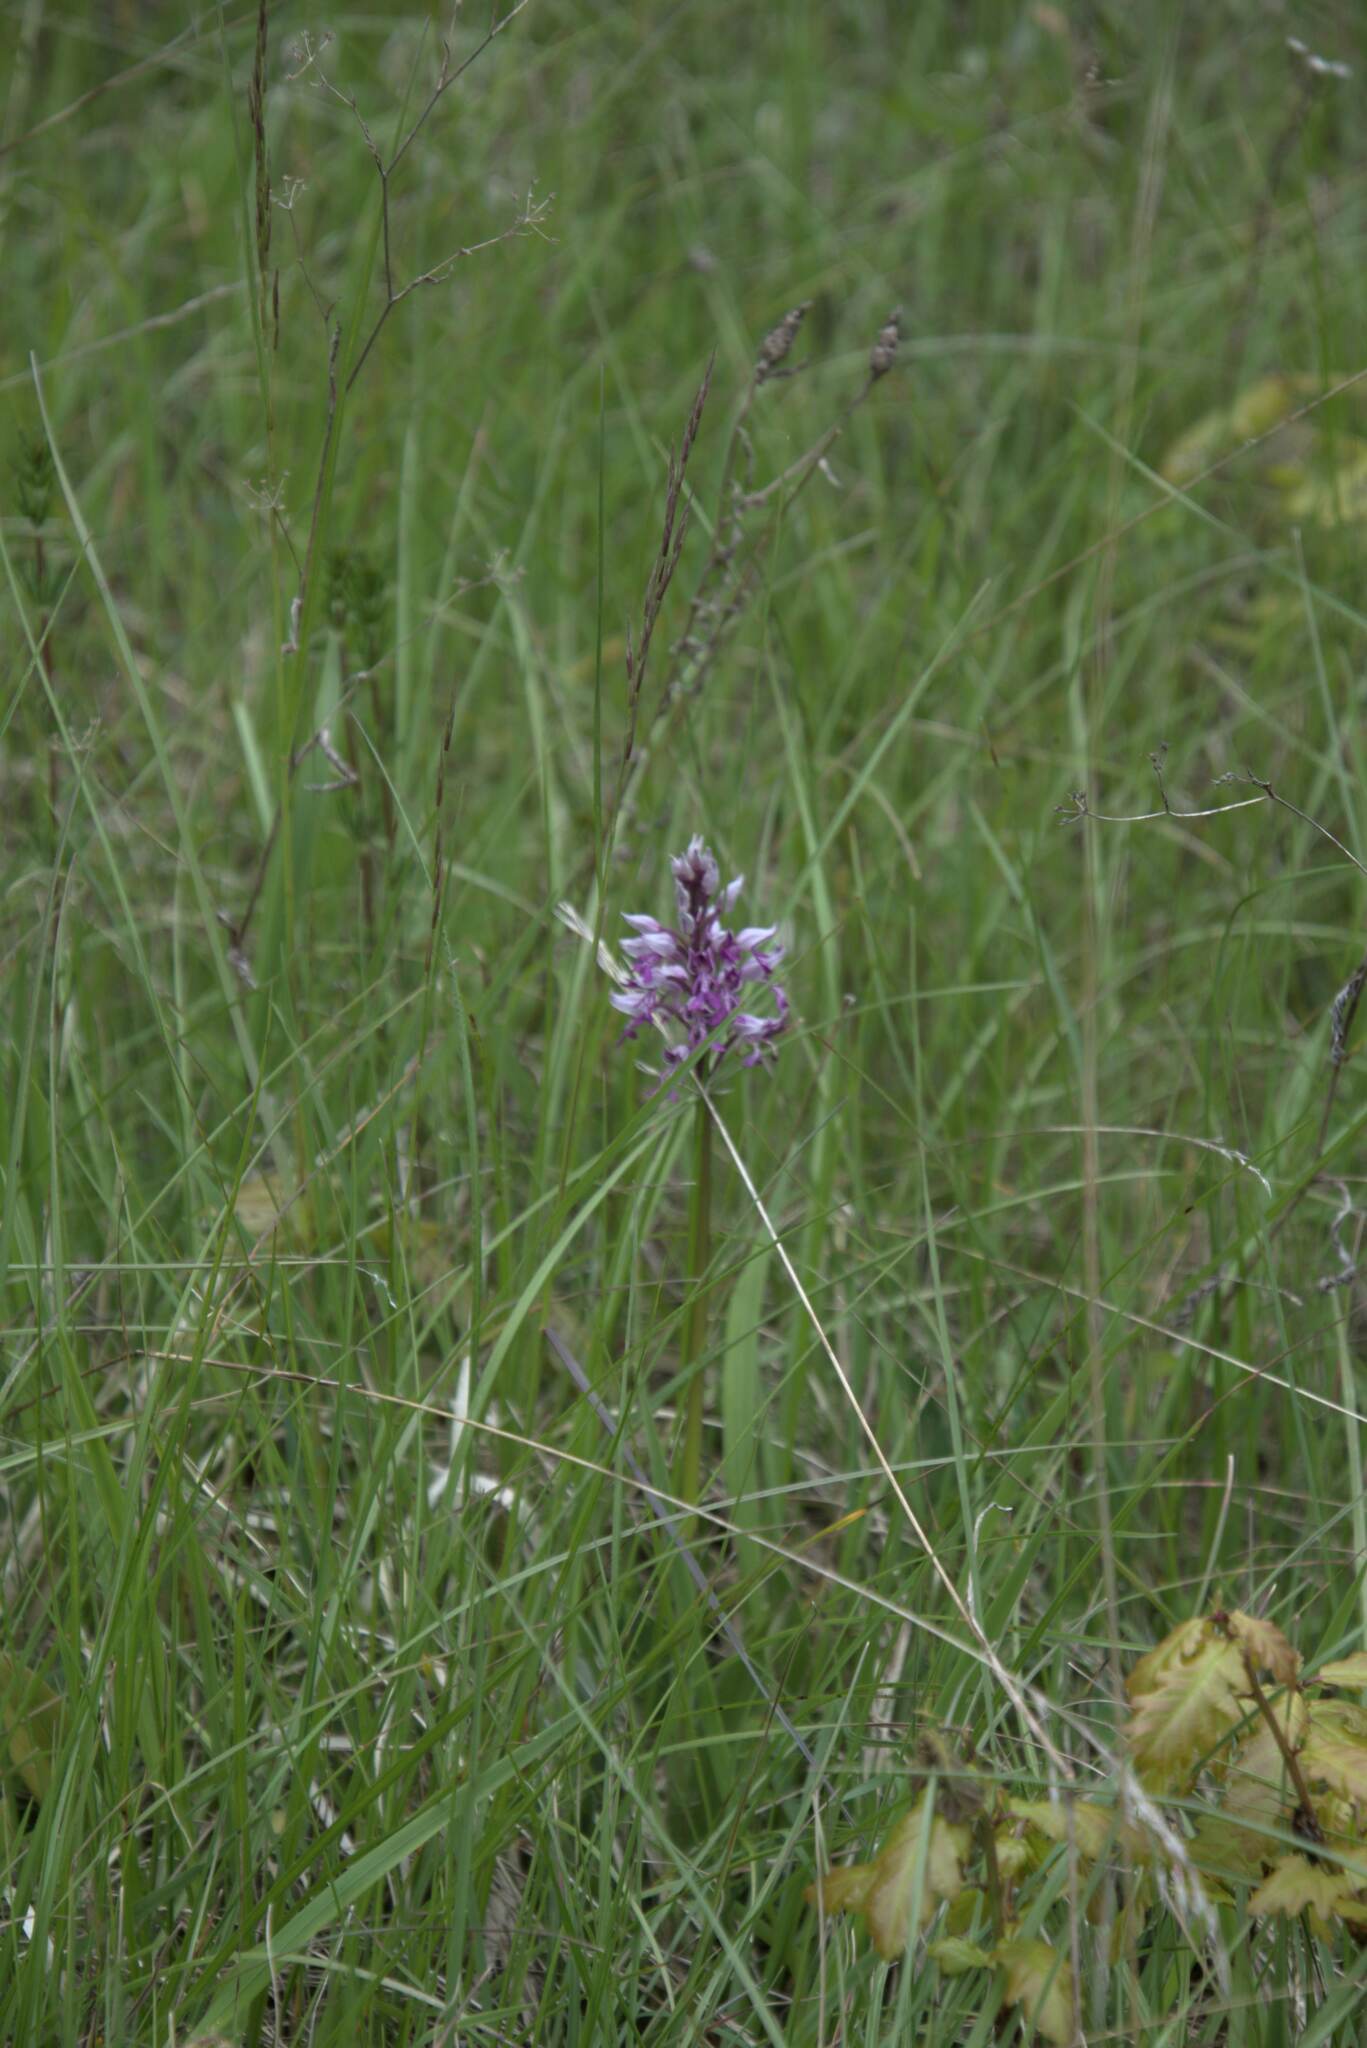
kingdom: Plantae
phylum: Tracheophyta
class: Liliopsida
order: Asparagales
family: Orchidaceae
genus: Orchis
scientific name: Orchis militaris
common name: Military orchid
